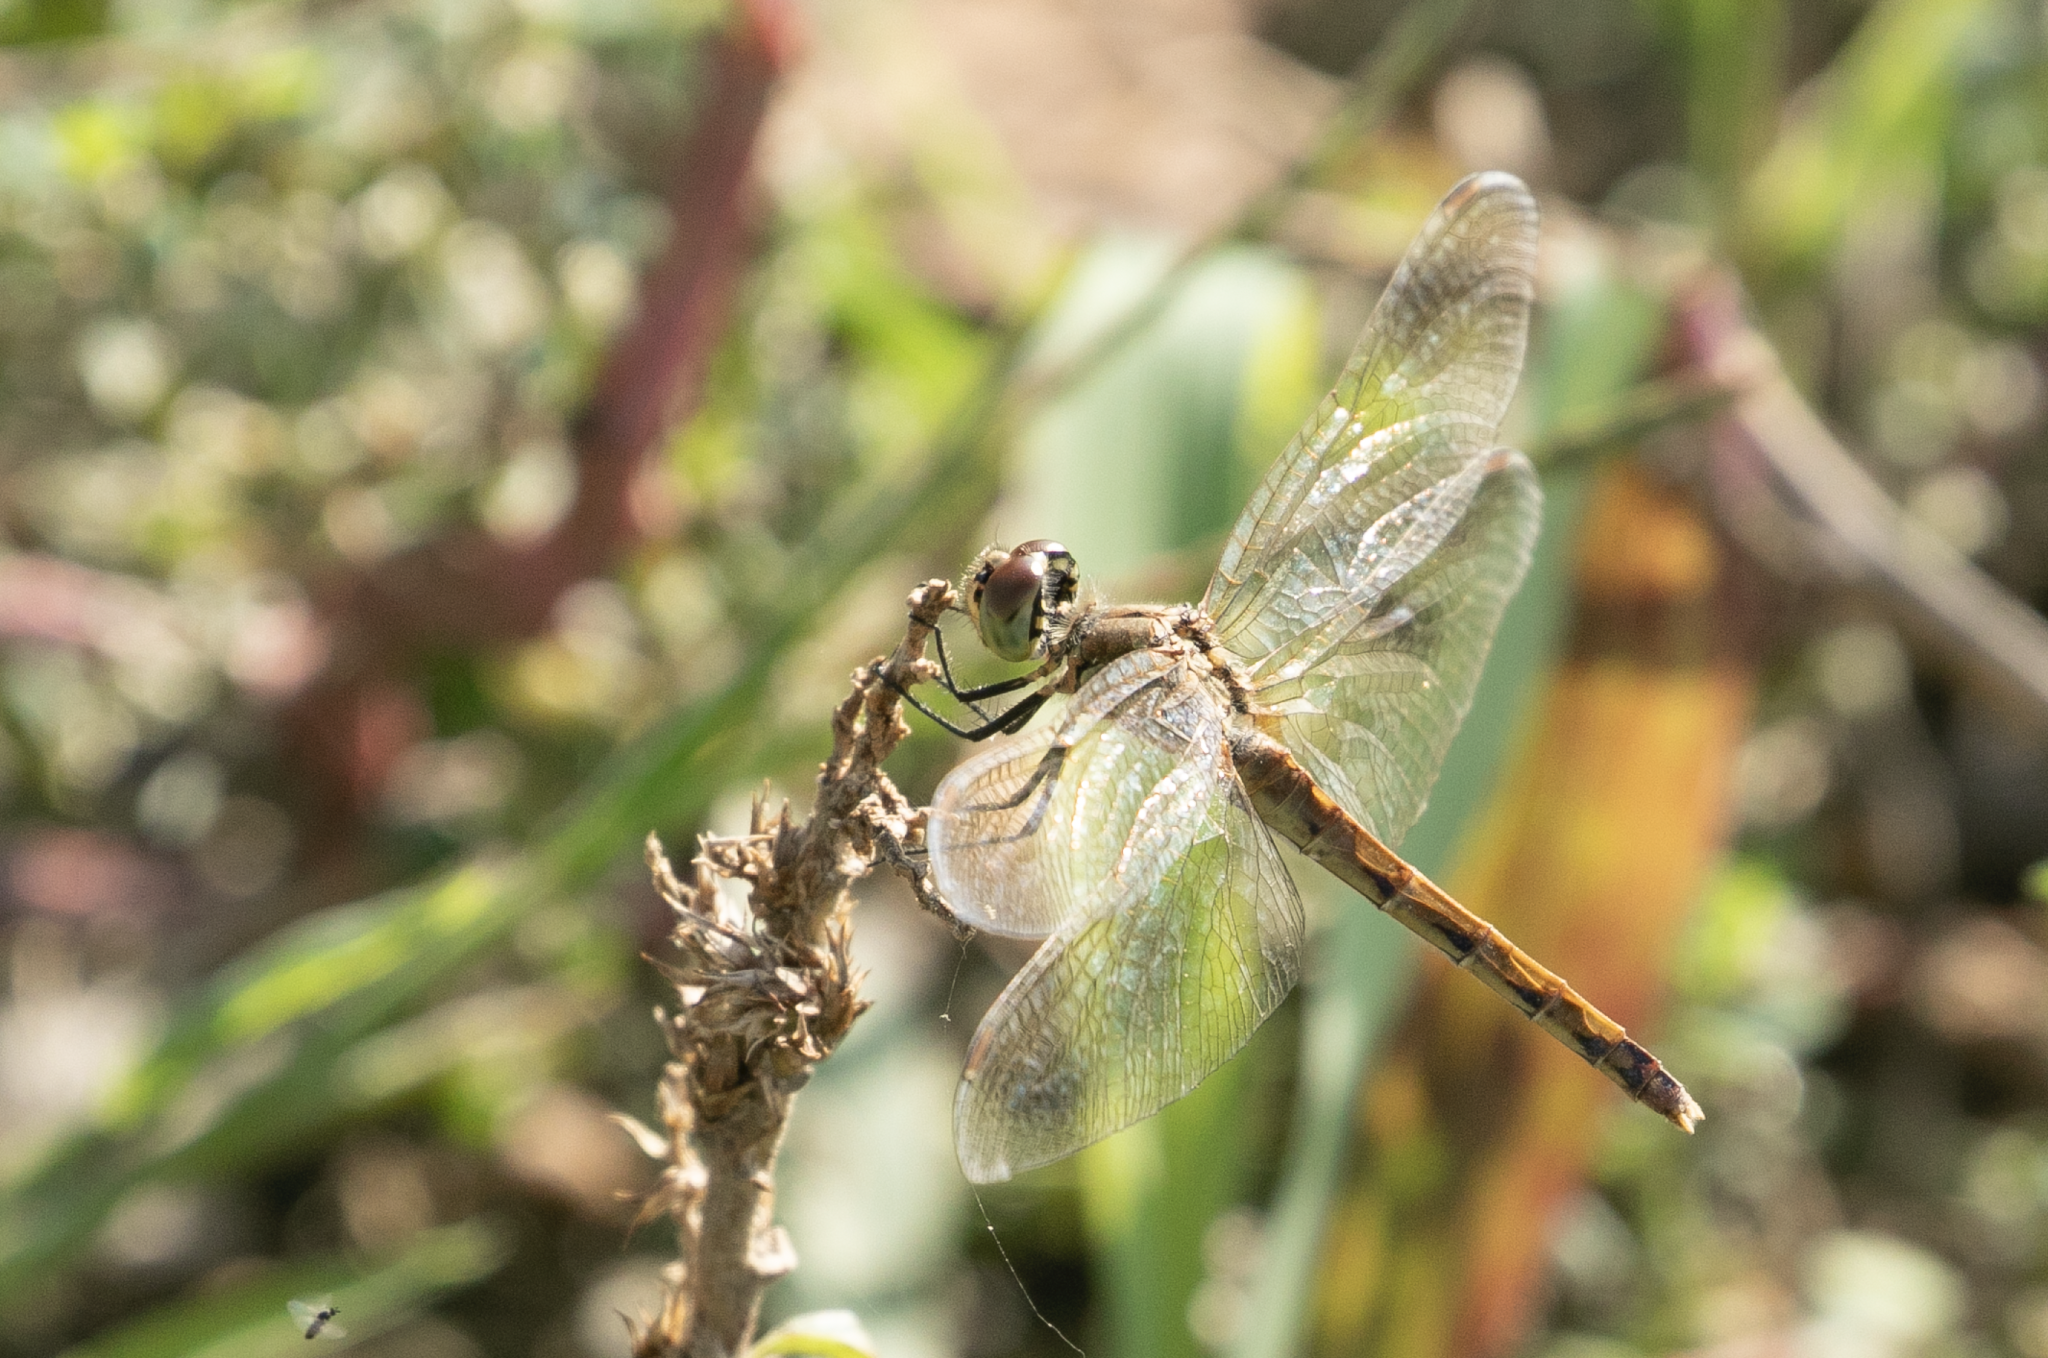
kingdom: Animalia
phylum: Arthropoda
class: Insecta
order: Odonata
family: Libellulidae
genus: Sympetrum
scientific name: Sympetrum depressiusculum
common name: Spotted darter
